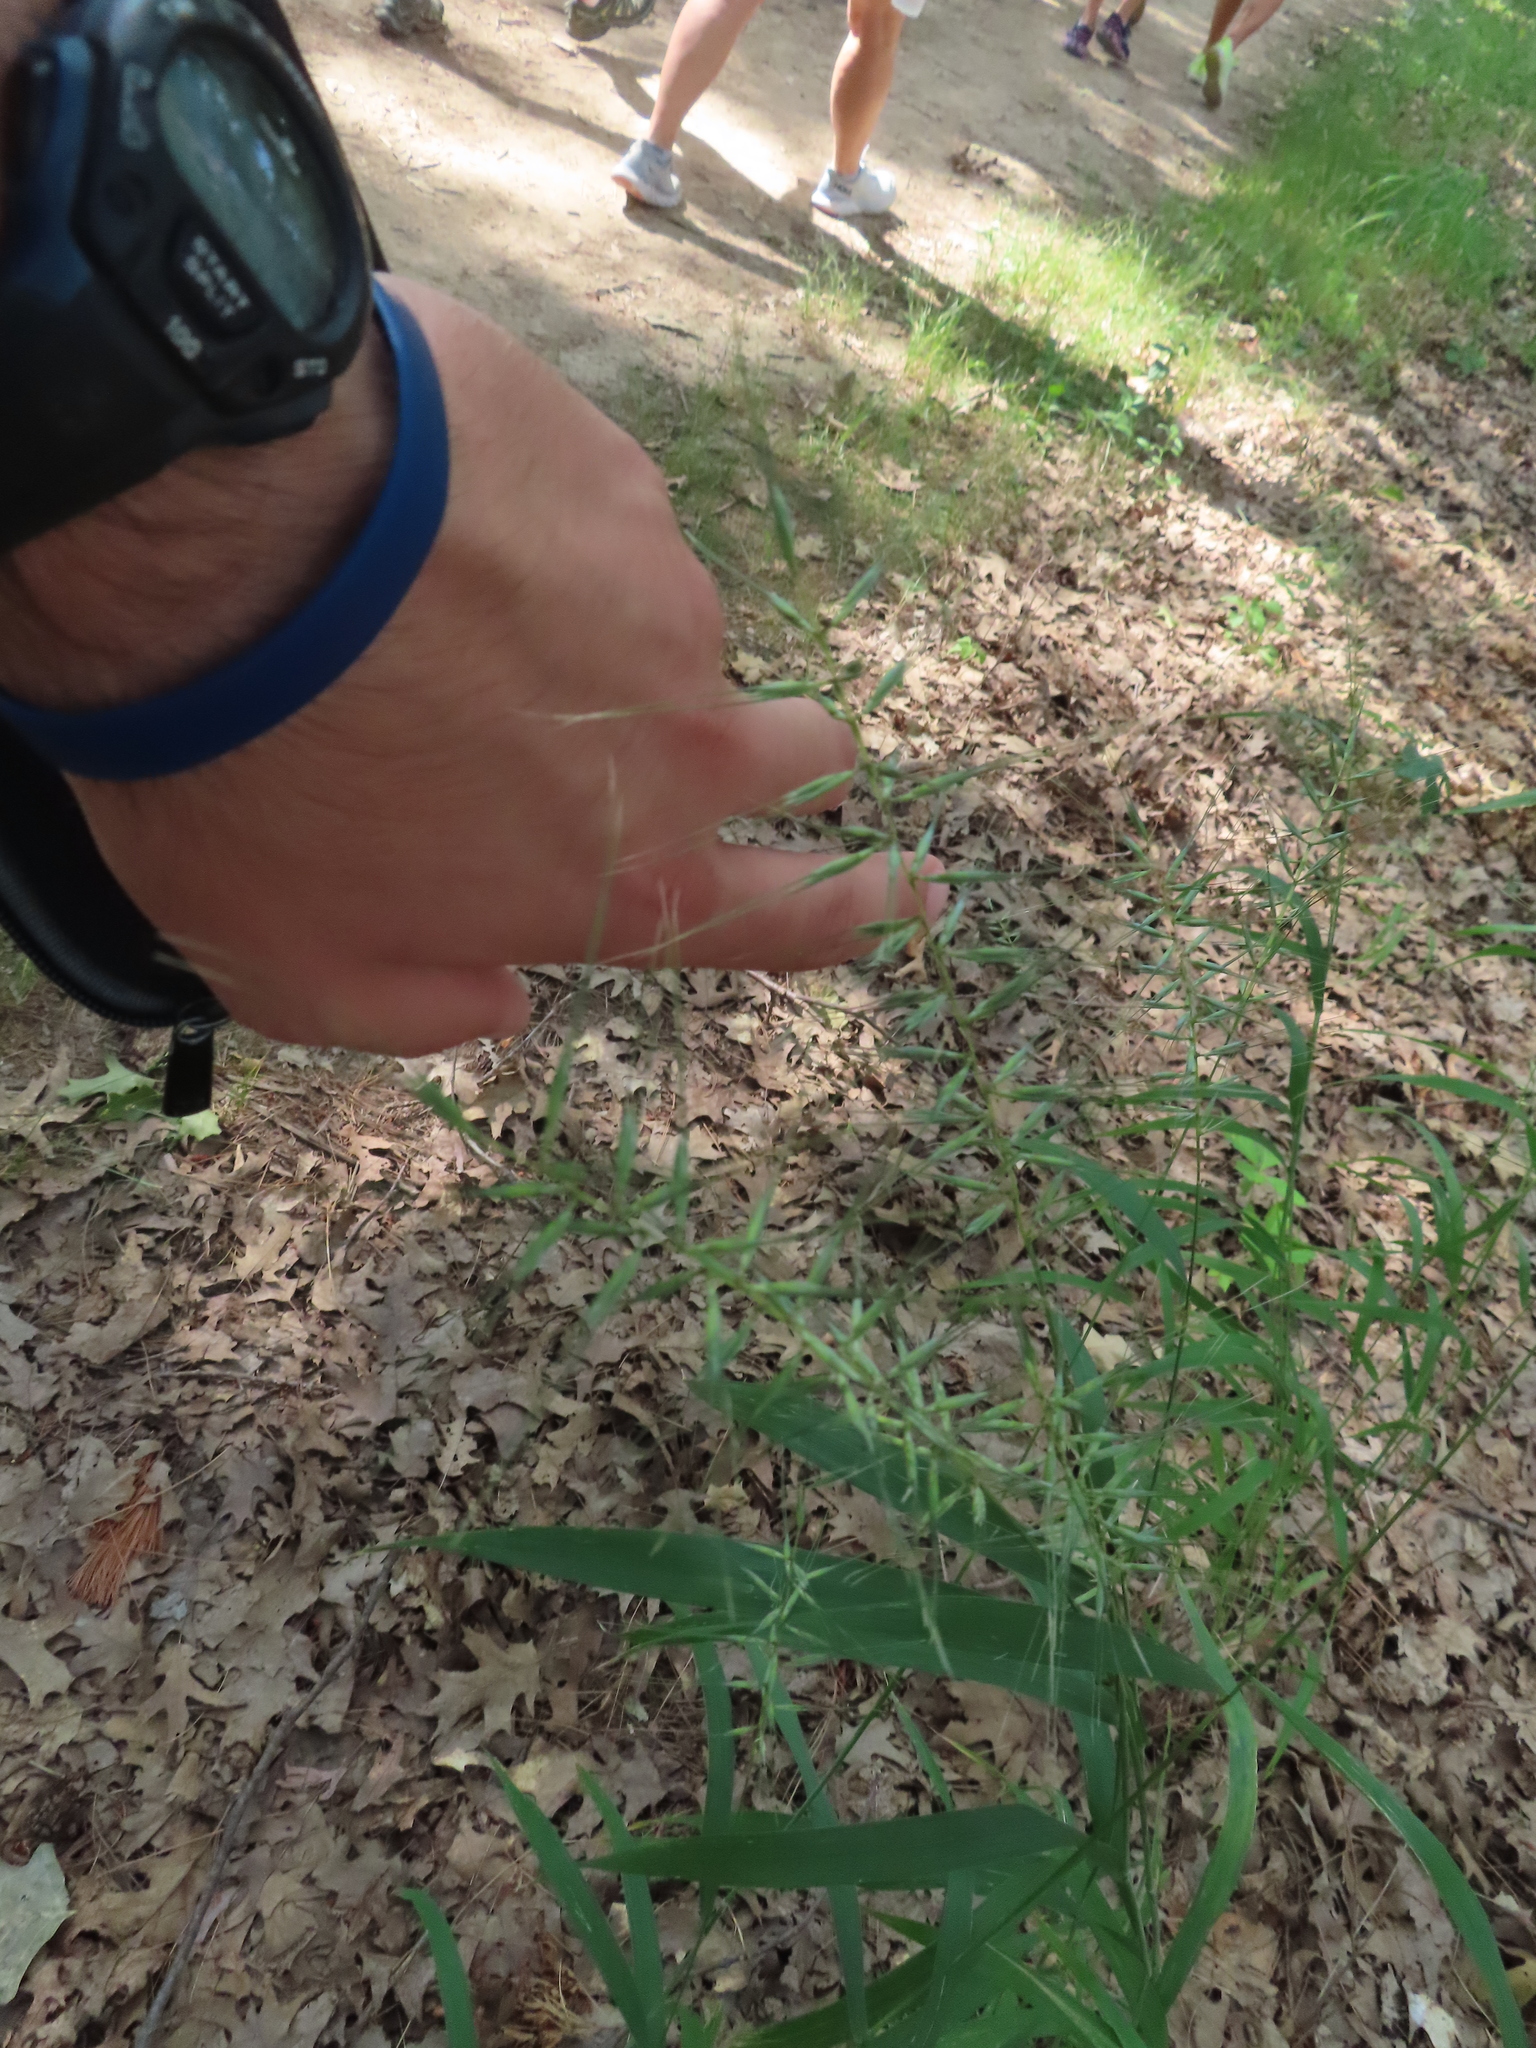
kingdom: Plantae
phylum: Tracheophyta
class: Liliopsida
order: Poales
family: Poaceae
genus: Elymus
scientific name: Elymus hystrix
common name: Bottlebrush grass
